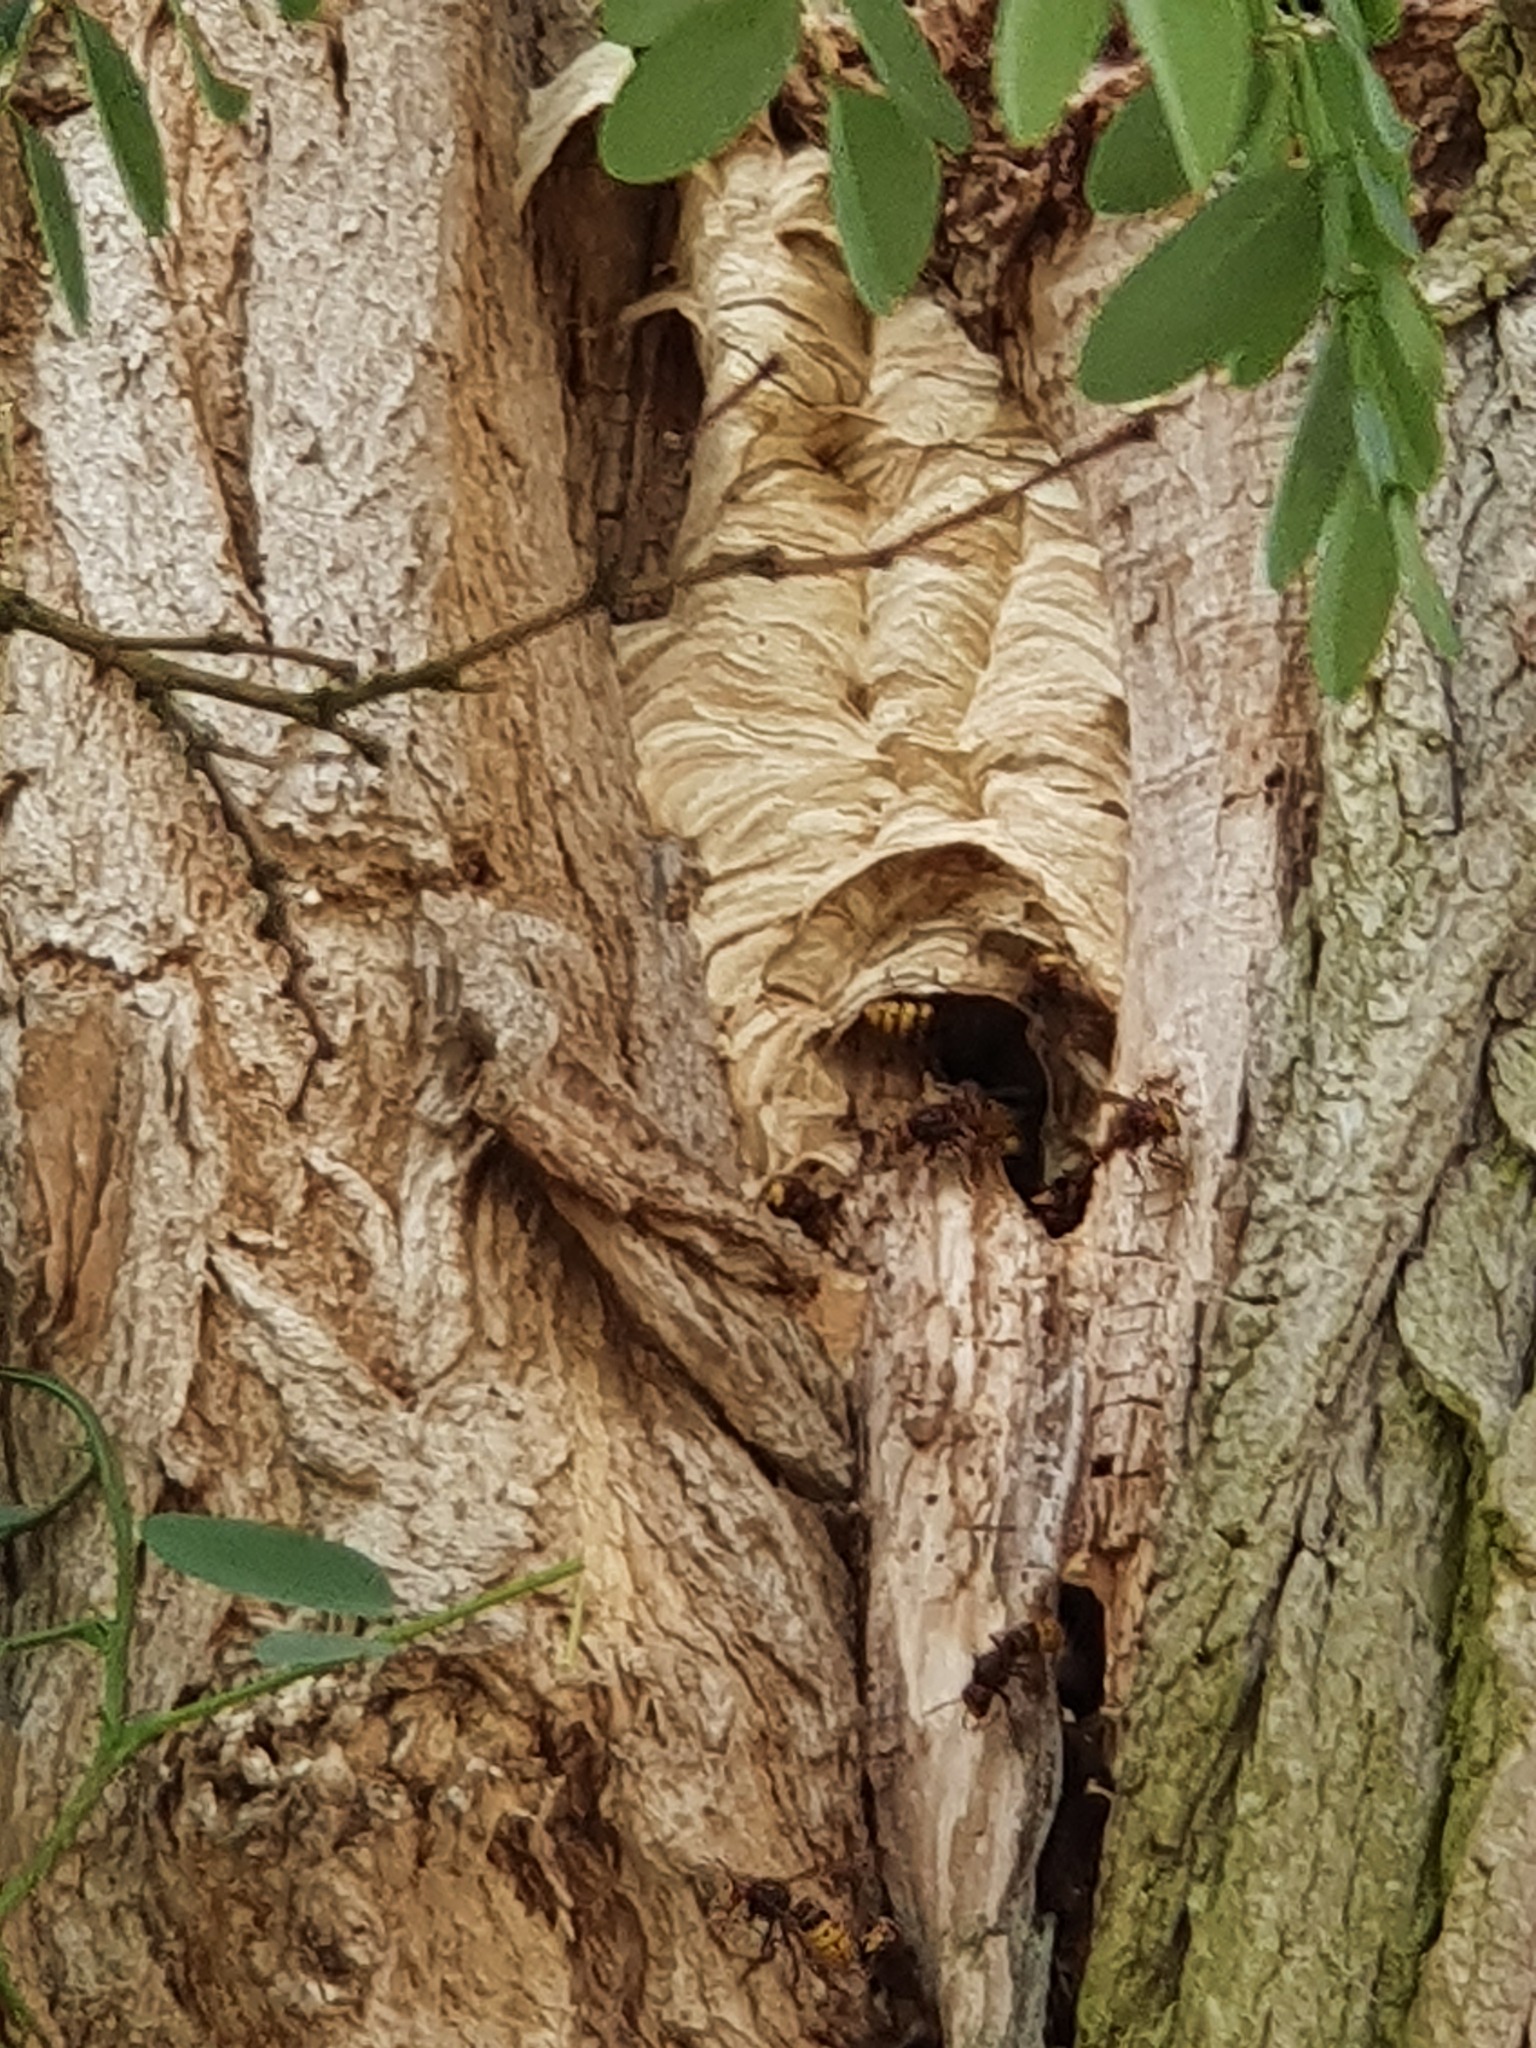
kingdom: Animalia
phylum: Arthropoda
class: Insecta
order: Hymenoptera
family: Vespidae
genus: Vespa
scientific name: Vespa crabro
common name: Hornet
